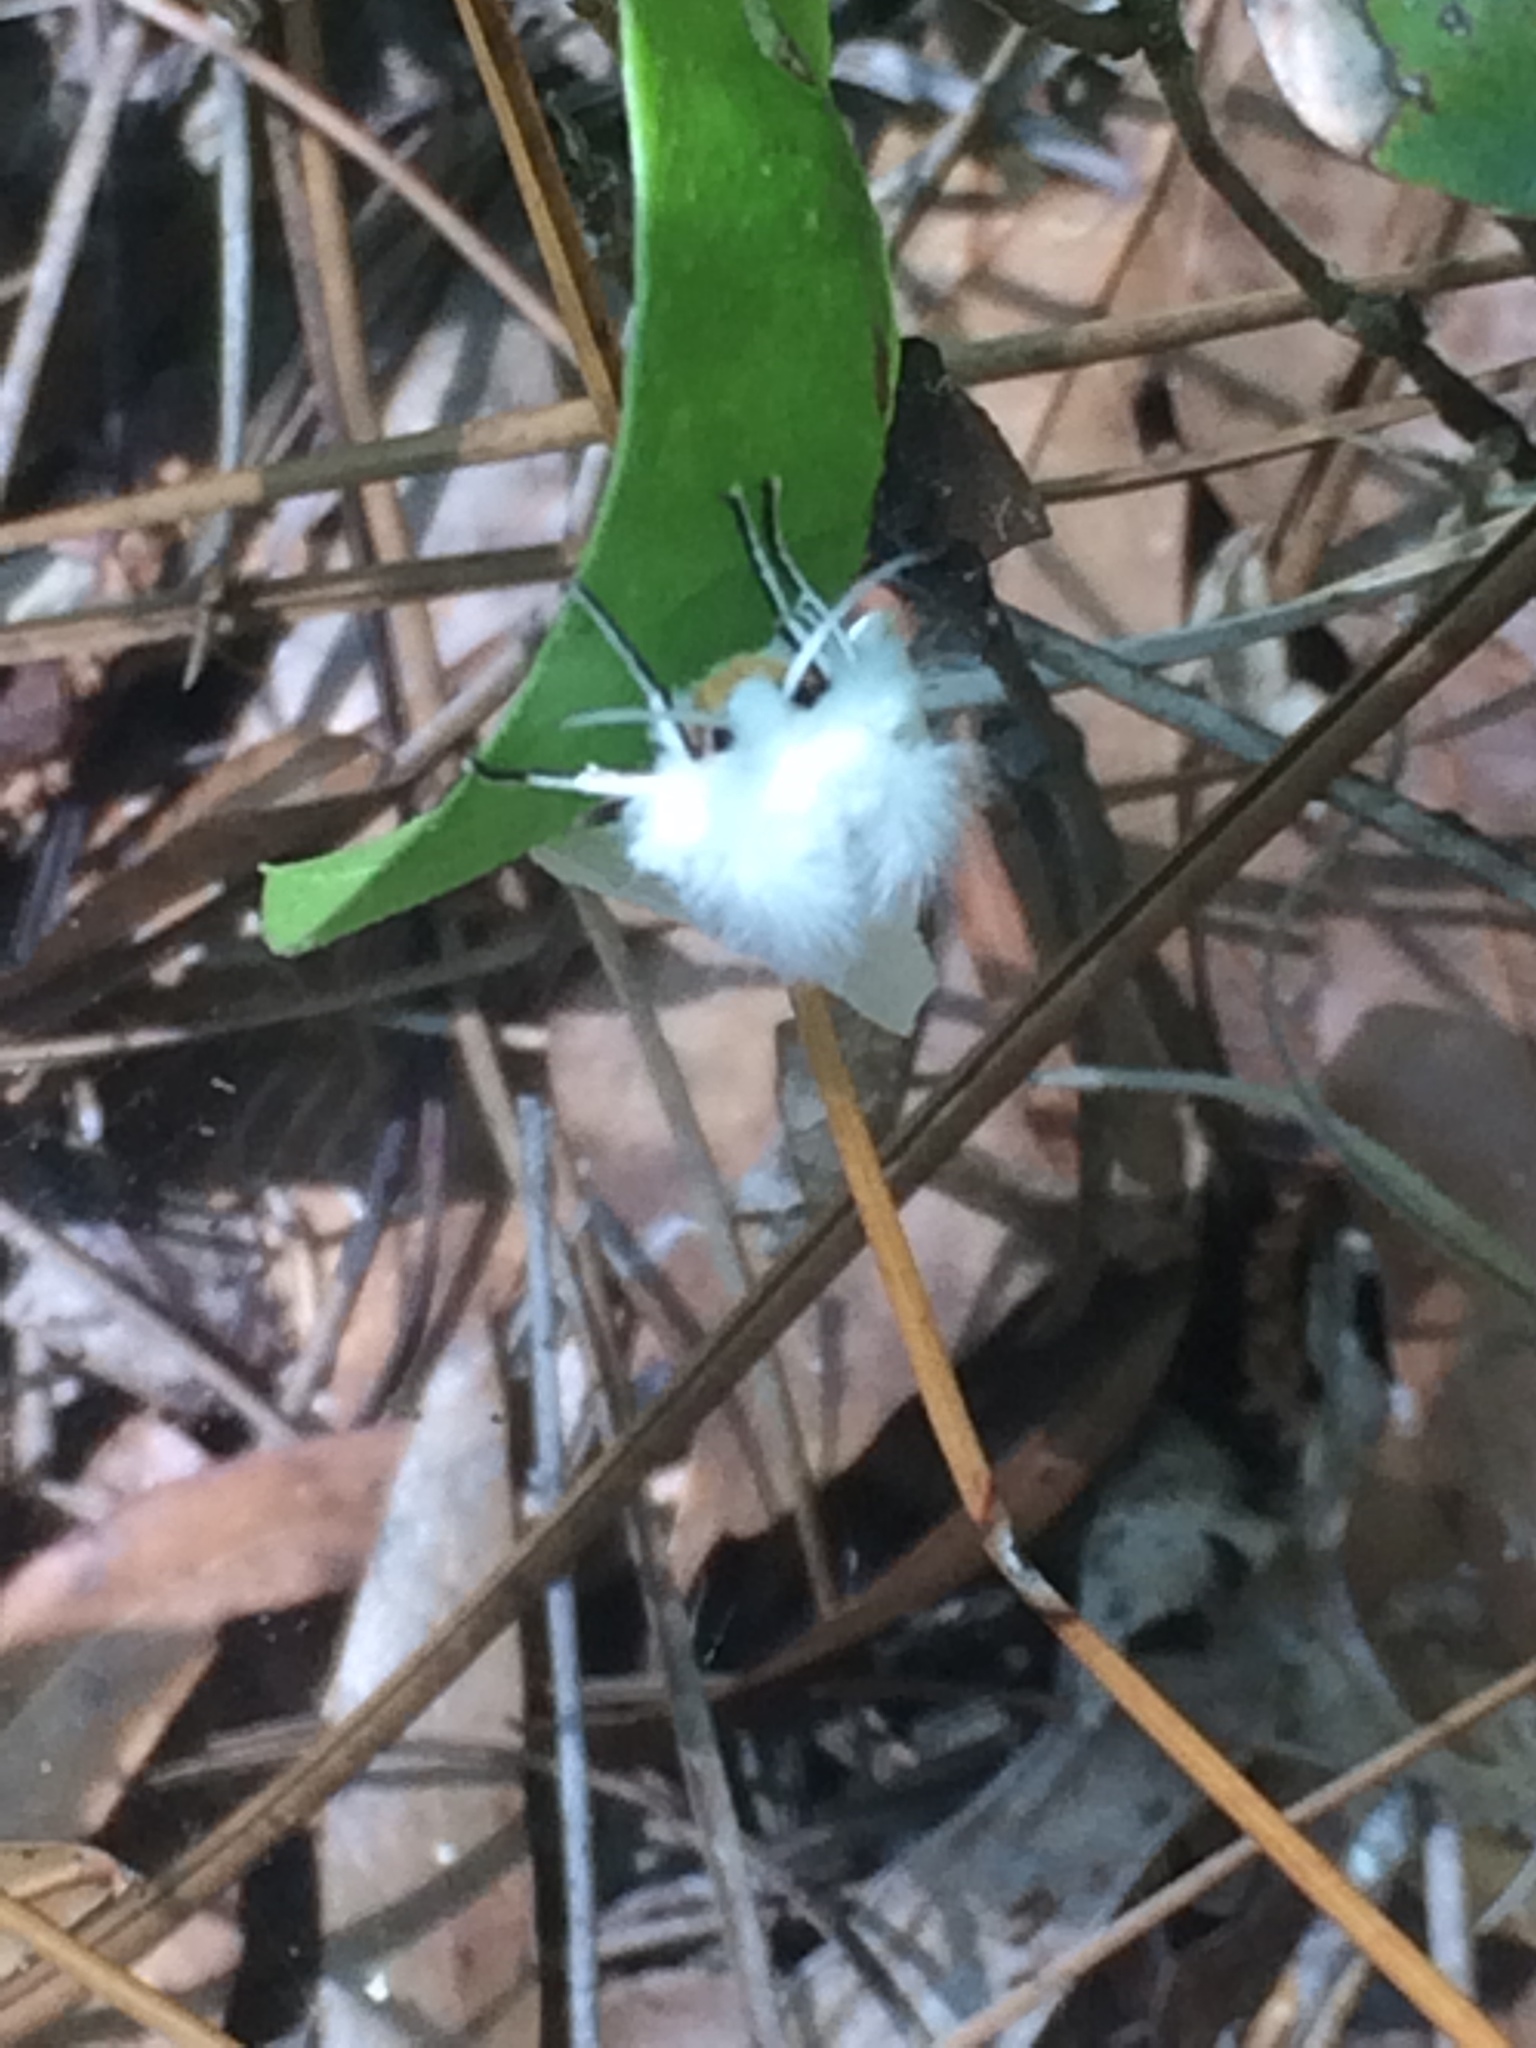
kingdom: Animalia
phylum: Arthropoda
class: Insecta
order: Lepidoptera
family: Erebidae
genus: Spilosoma
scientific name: Spilosoma virginica
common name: Virginia tiger moth
